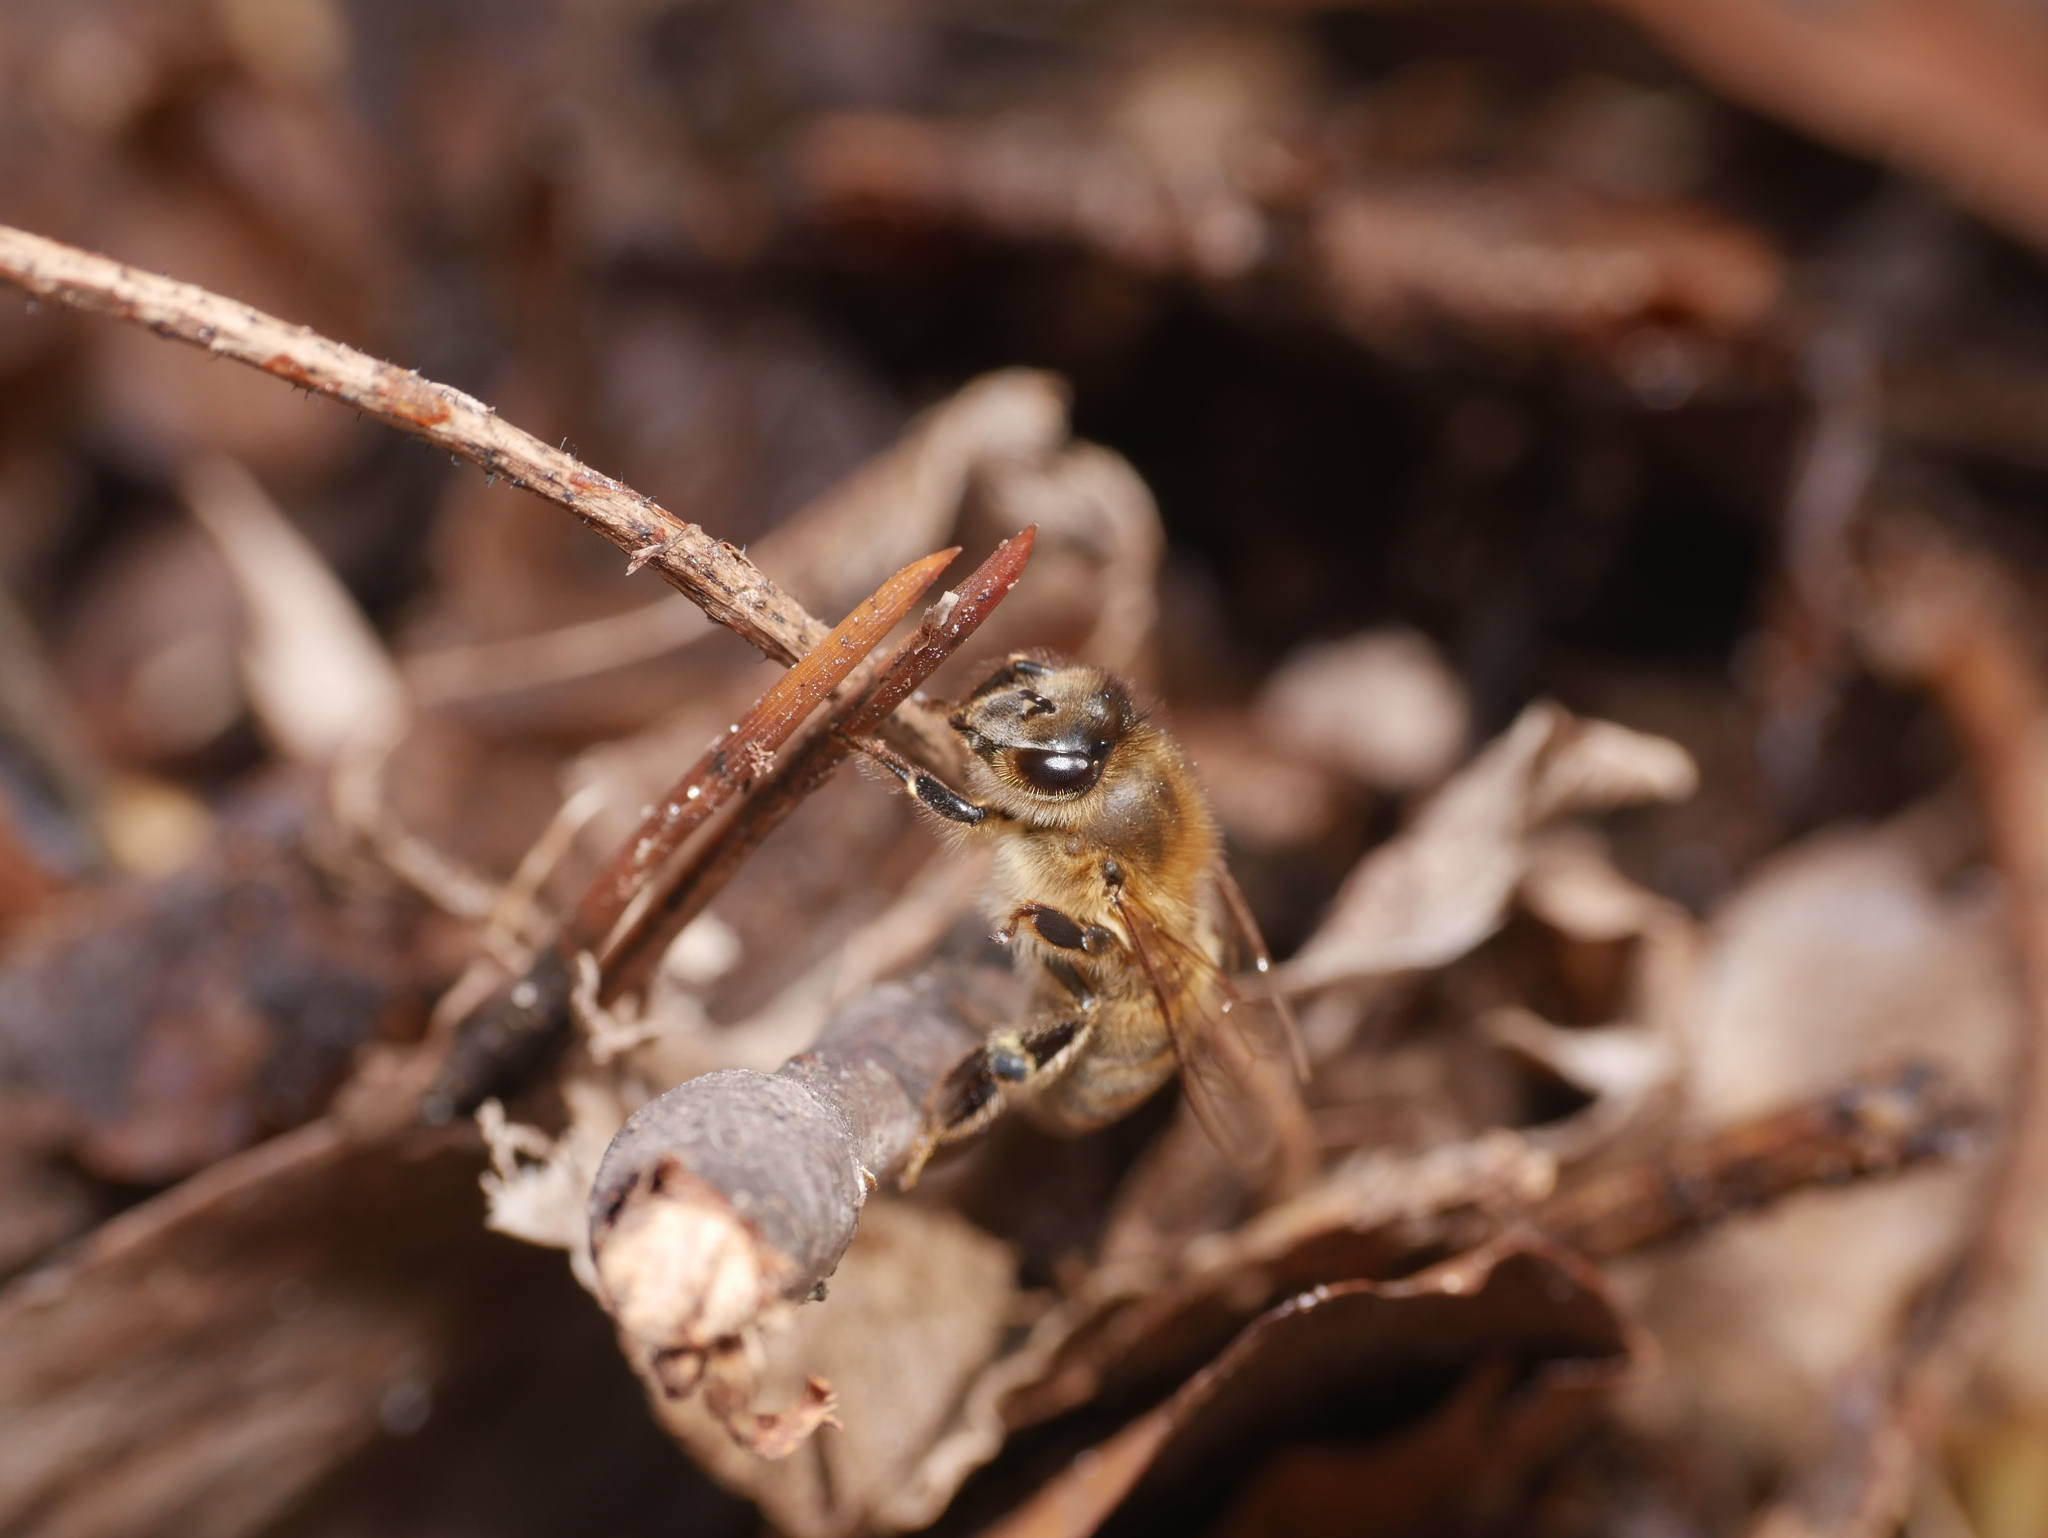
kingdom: Animalia
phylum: Arthropoda
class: Insecta
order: Hymenoptera
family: Apidae
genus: Apis
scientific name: Apis mellifera
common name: Honey bee
